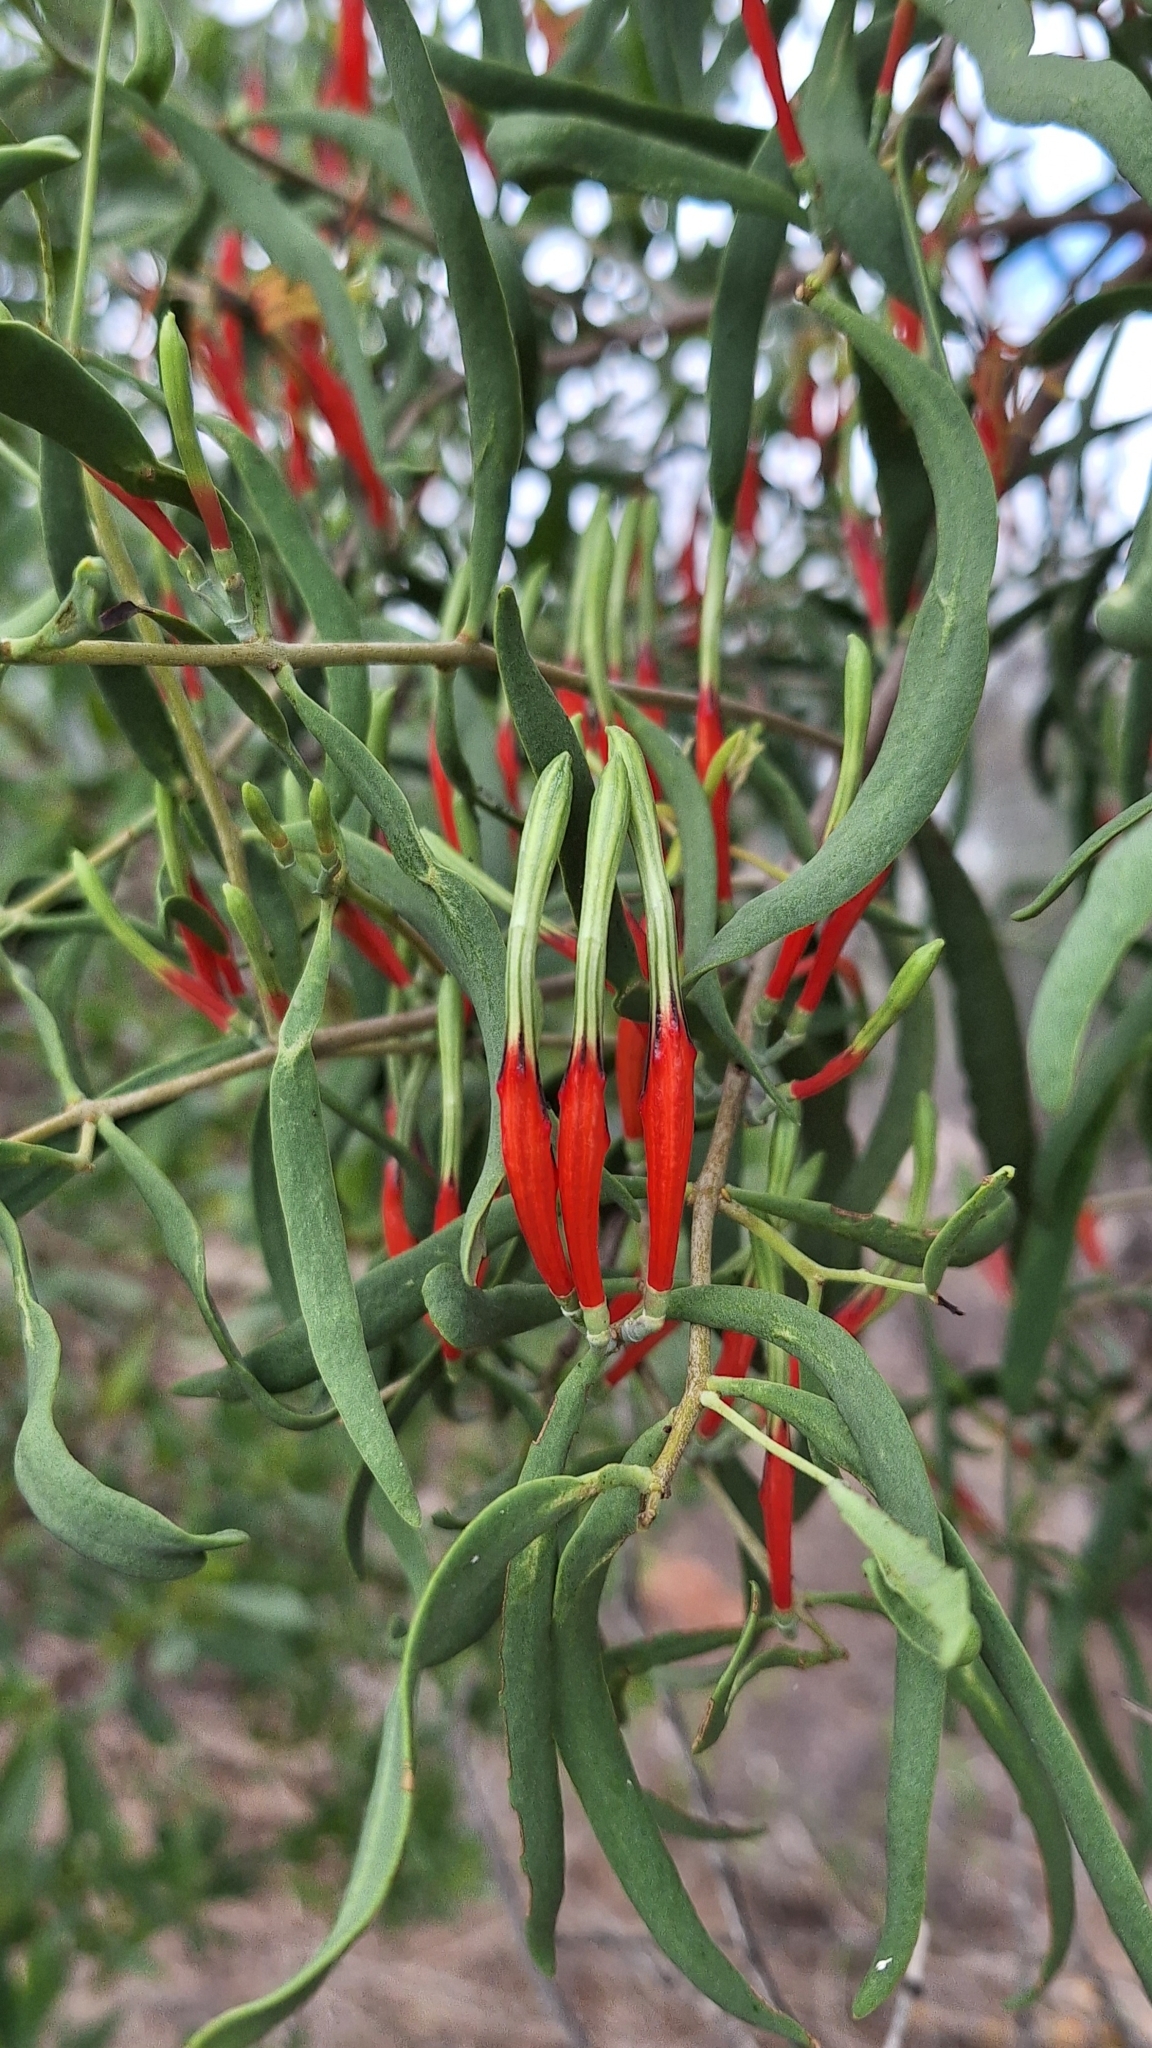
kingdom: Plantae
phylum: Tracheophyta
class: Magnoliopsida
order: Santalales
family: Loranthaceae
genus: Lysiana
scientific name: Lysiana exocarpi
